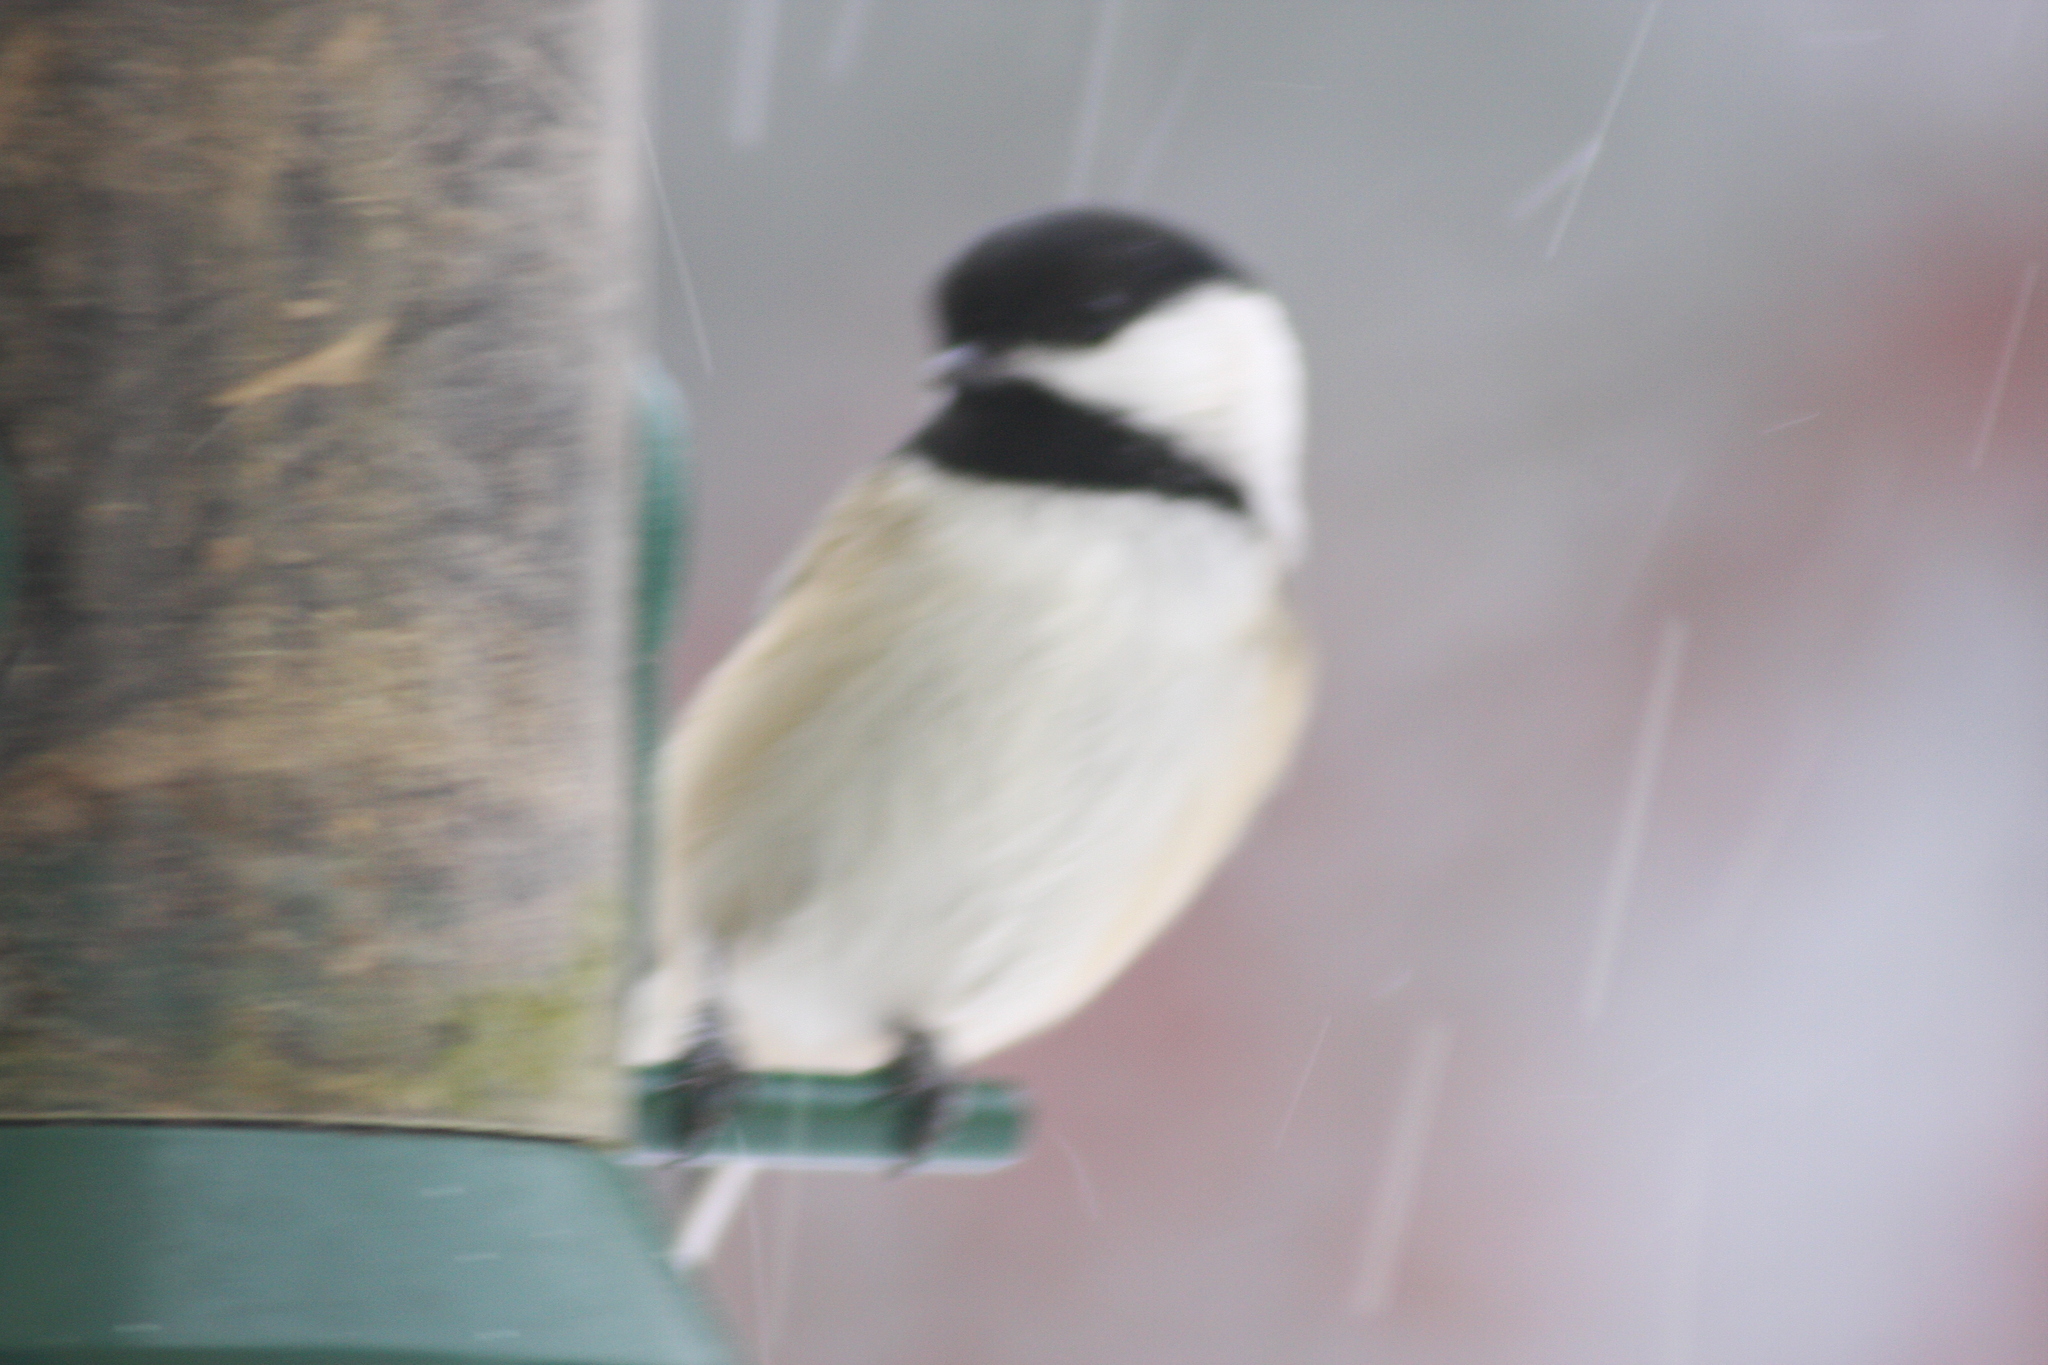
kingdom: Animalia
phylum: Chordata
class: Aves
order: Passeriformes
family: Paridae
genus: Poecile
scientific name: Poecile atricapillus
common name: Black-capped chickadee
